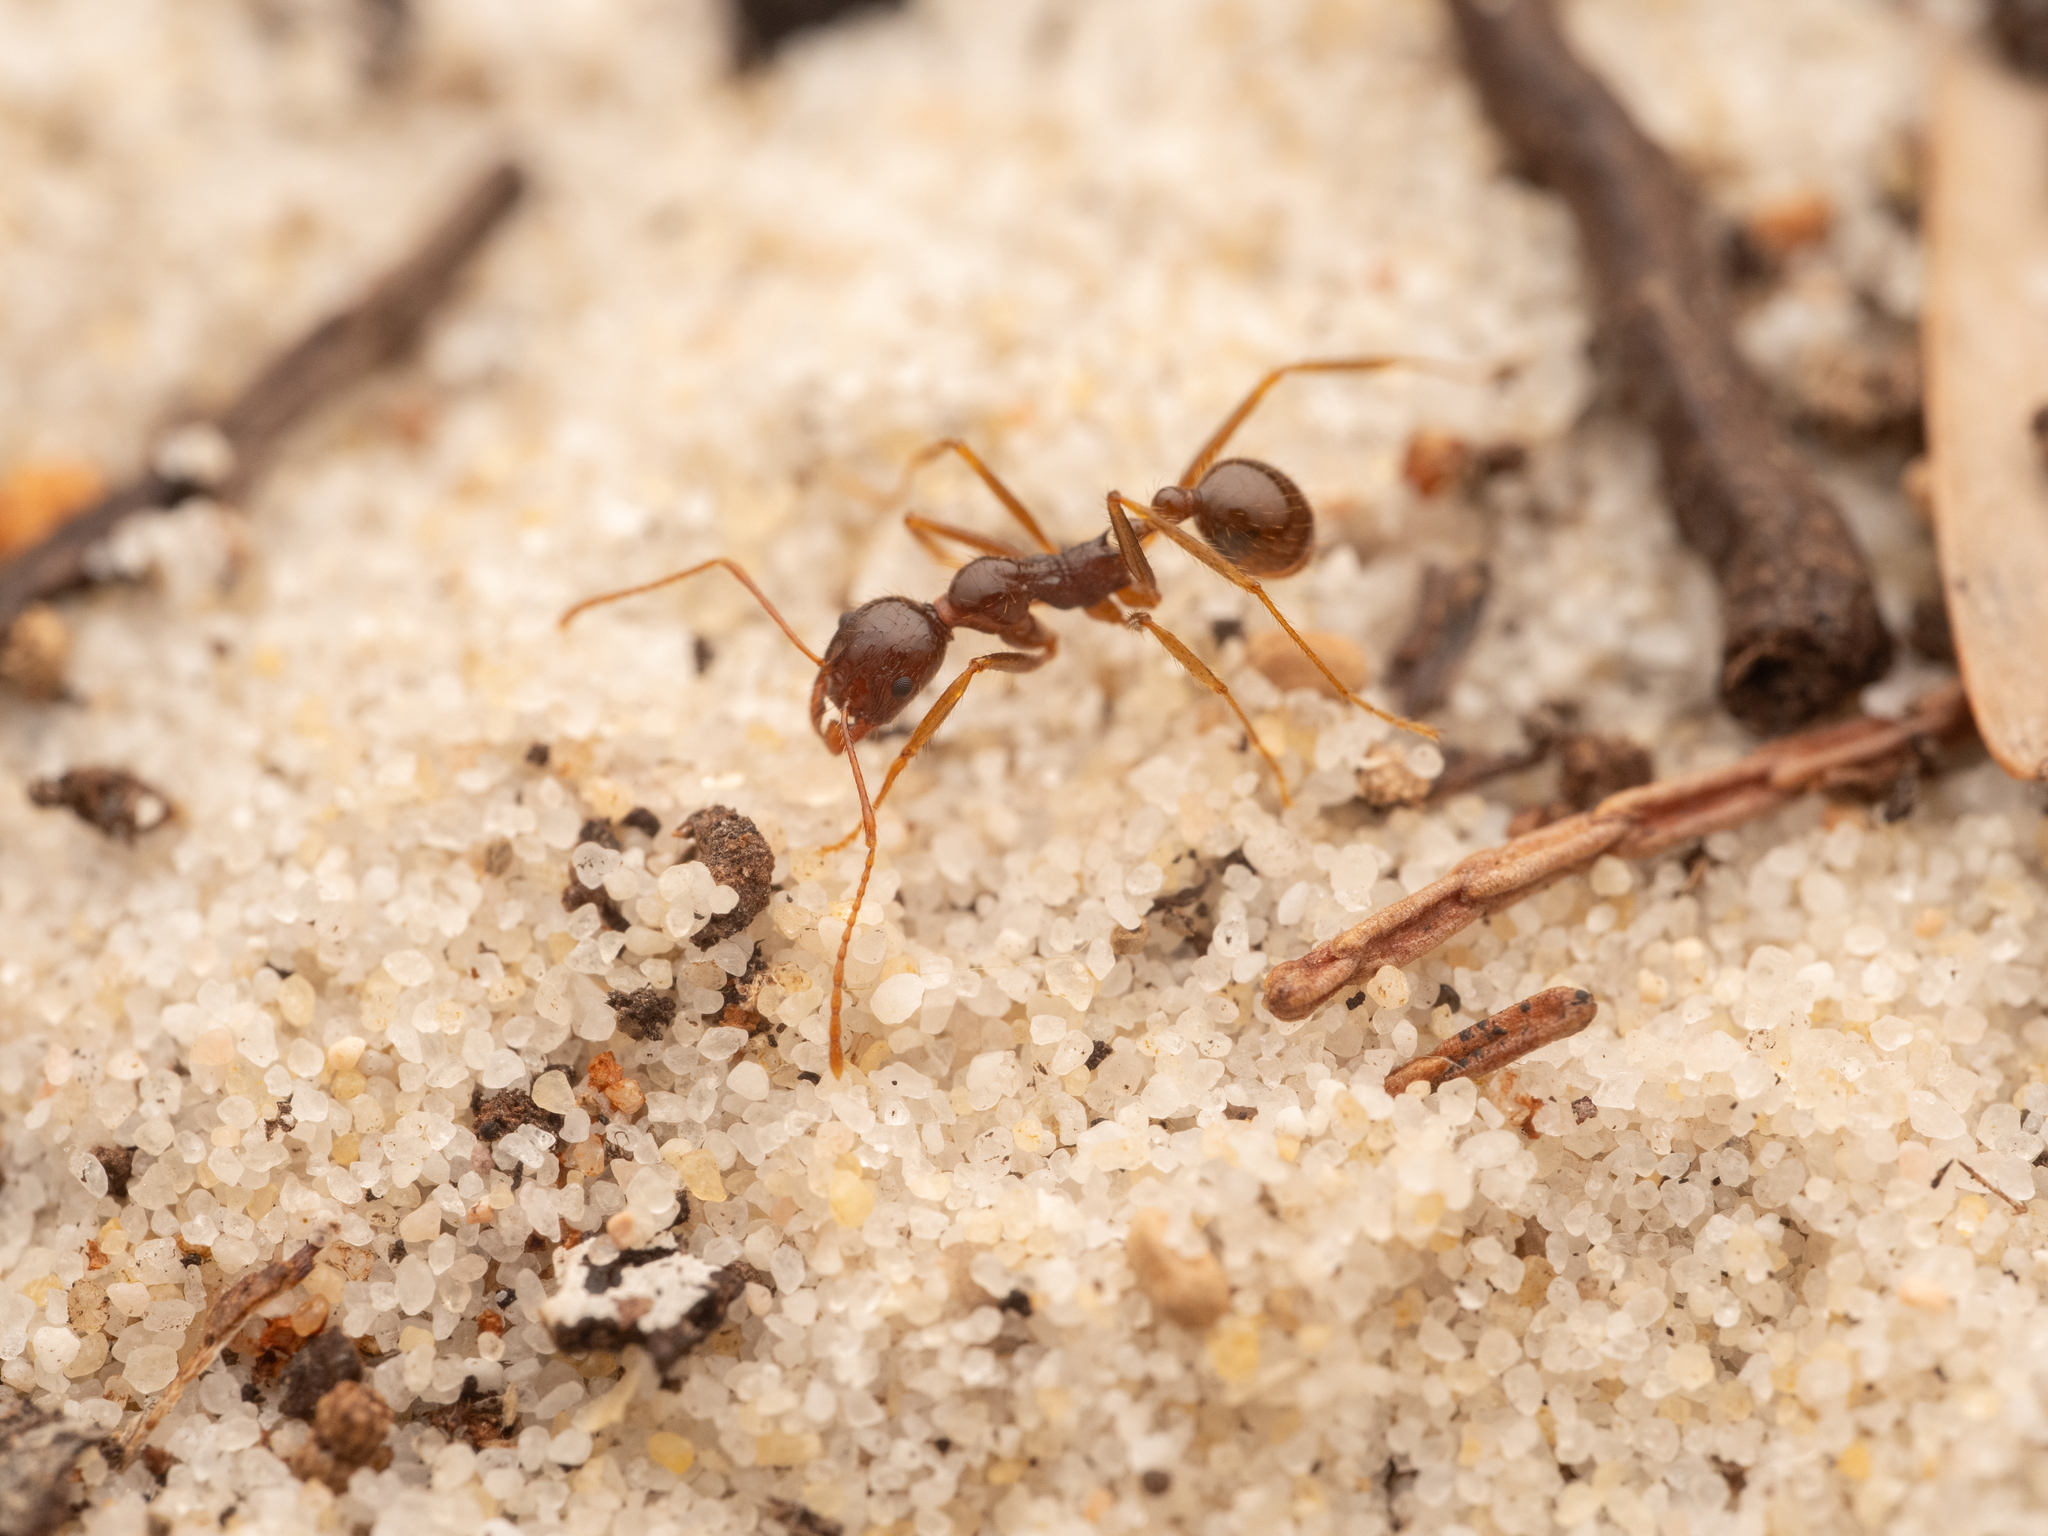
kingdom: Animalia
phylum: Arthropoda
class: Insecta
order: Hymenoptera
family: Formicidae
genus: Aphaenogaster
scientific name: Aphaenogaster longiceps
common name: Funnel ant
